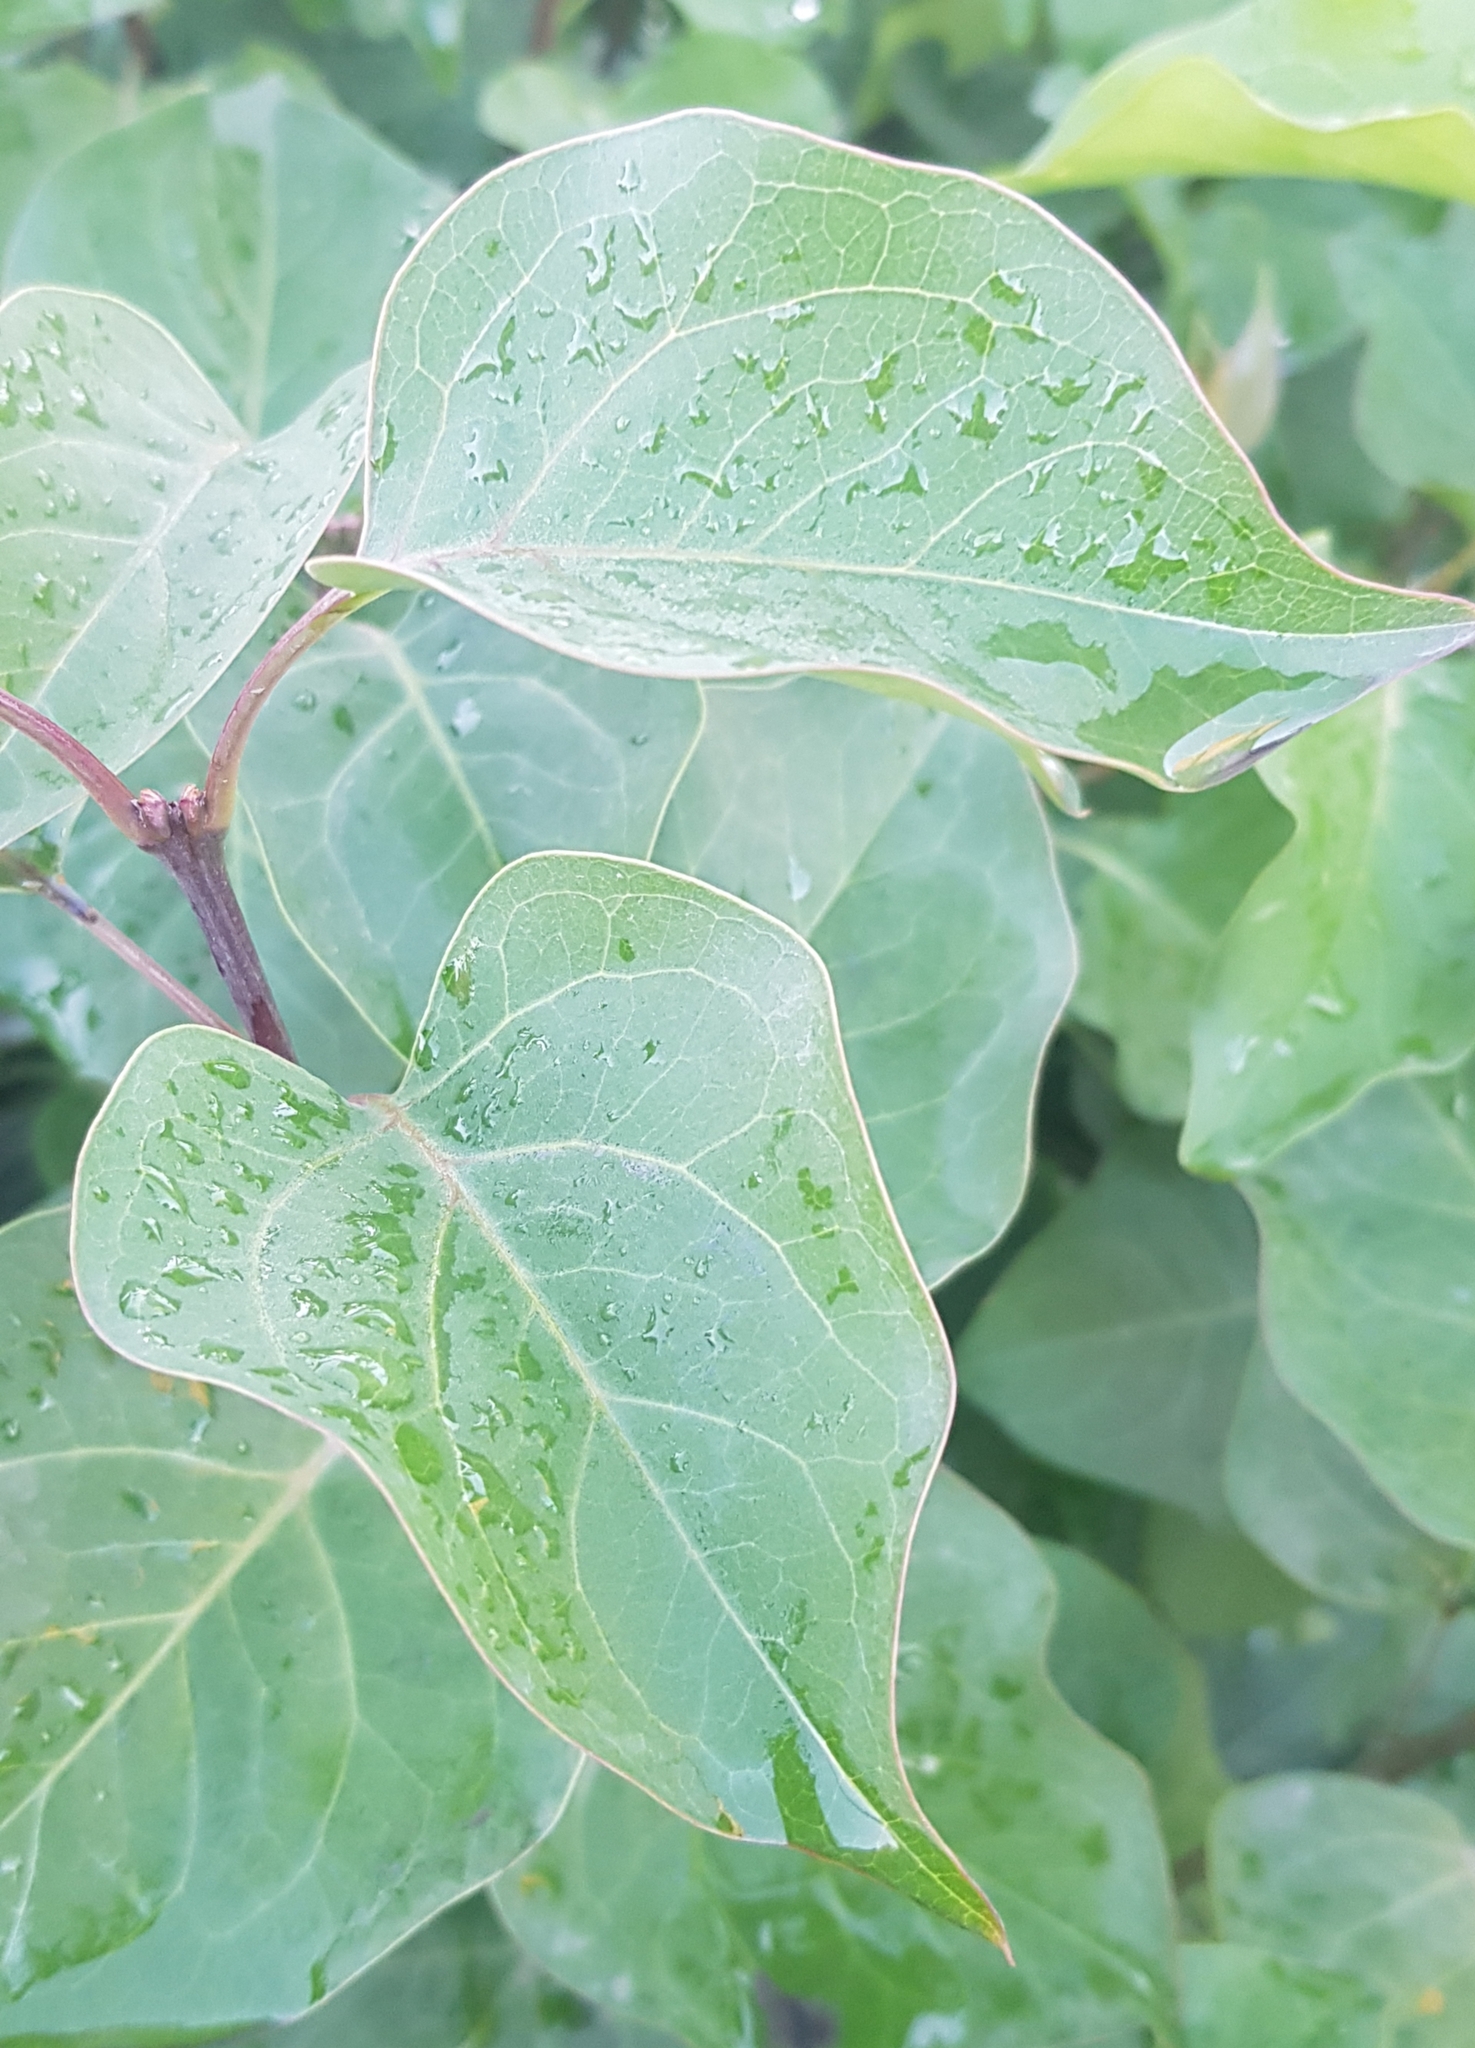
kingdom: Plantae
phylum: Tracheophyta
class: Magnoliopsida
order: Lamiales
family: Oleaceae
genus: Syringa
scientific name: Syringa reticulata
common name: Japanese tree lilac
